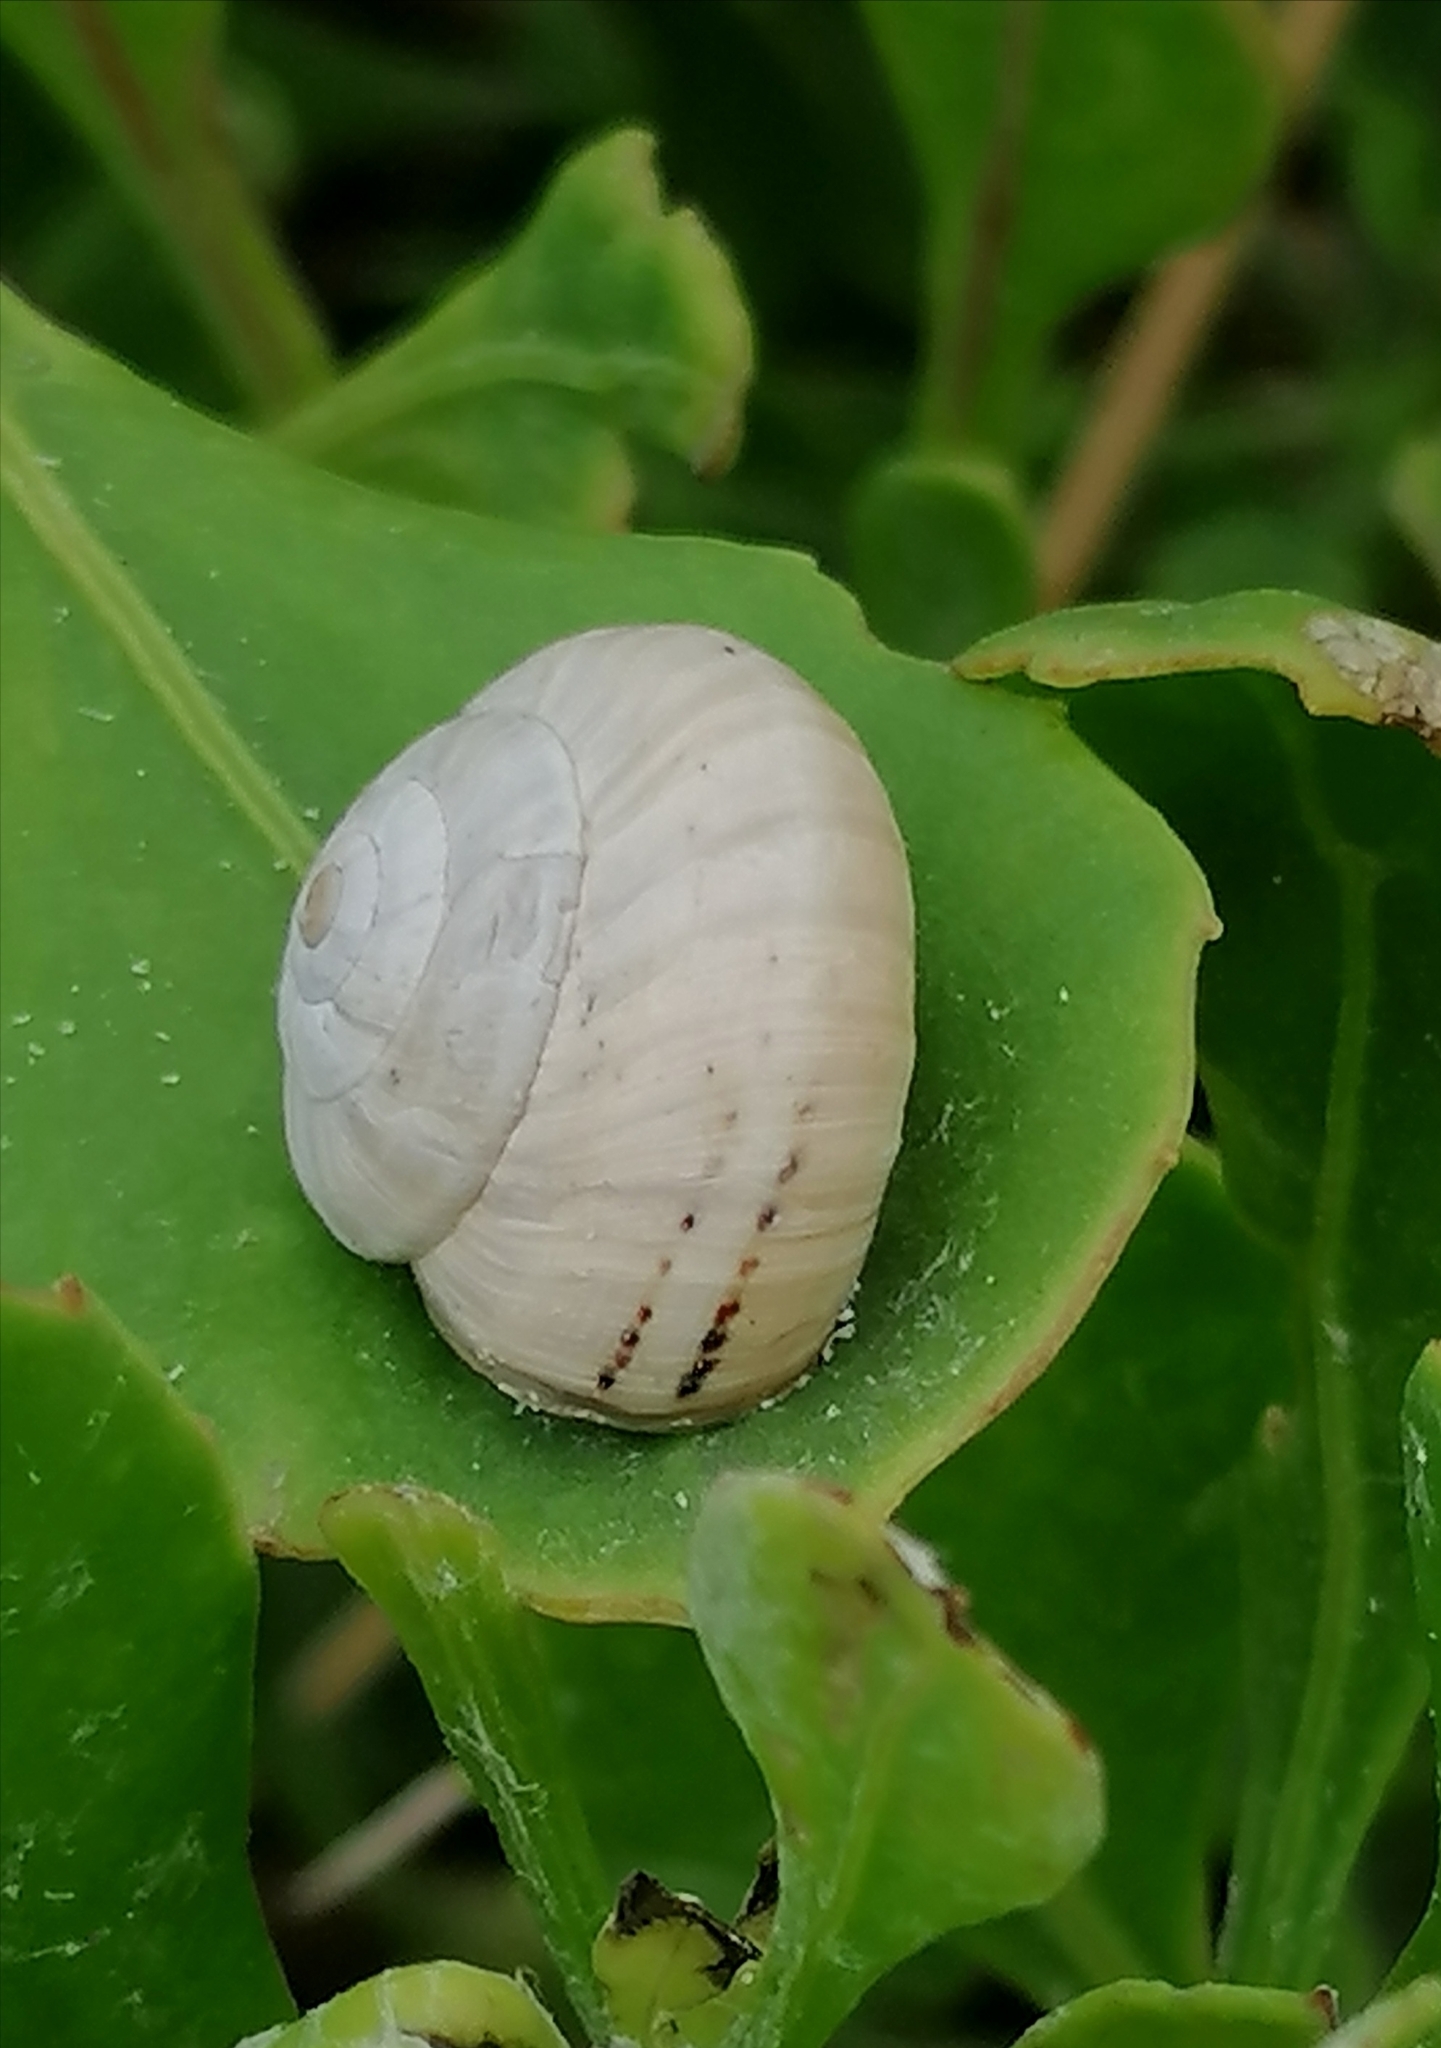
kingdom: Animalia
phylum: Mollusca
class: Gastropoda
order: Stylommatophora
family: Helicidae
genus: Theba
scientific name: Theba pisana
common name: White snail
